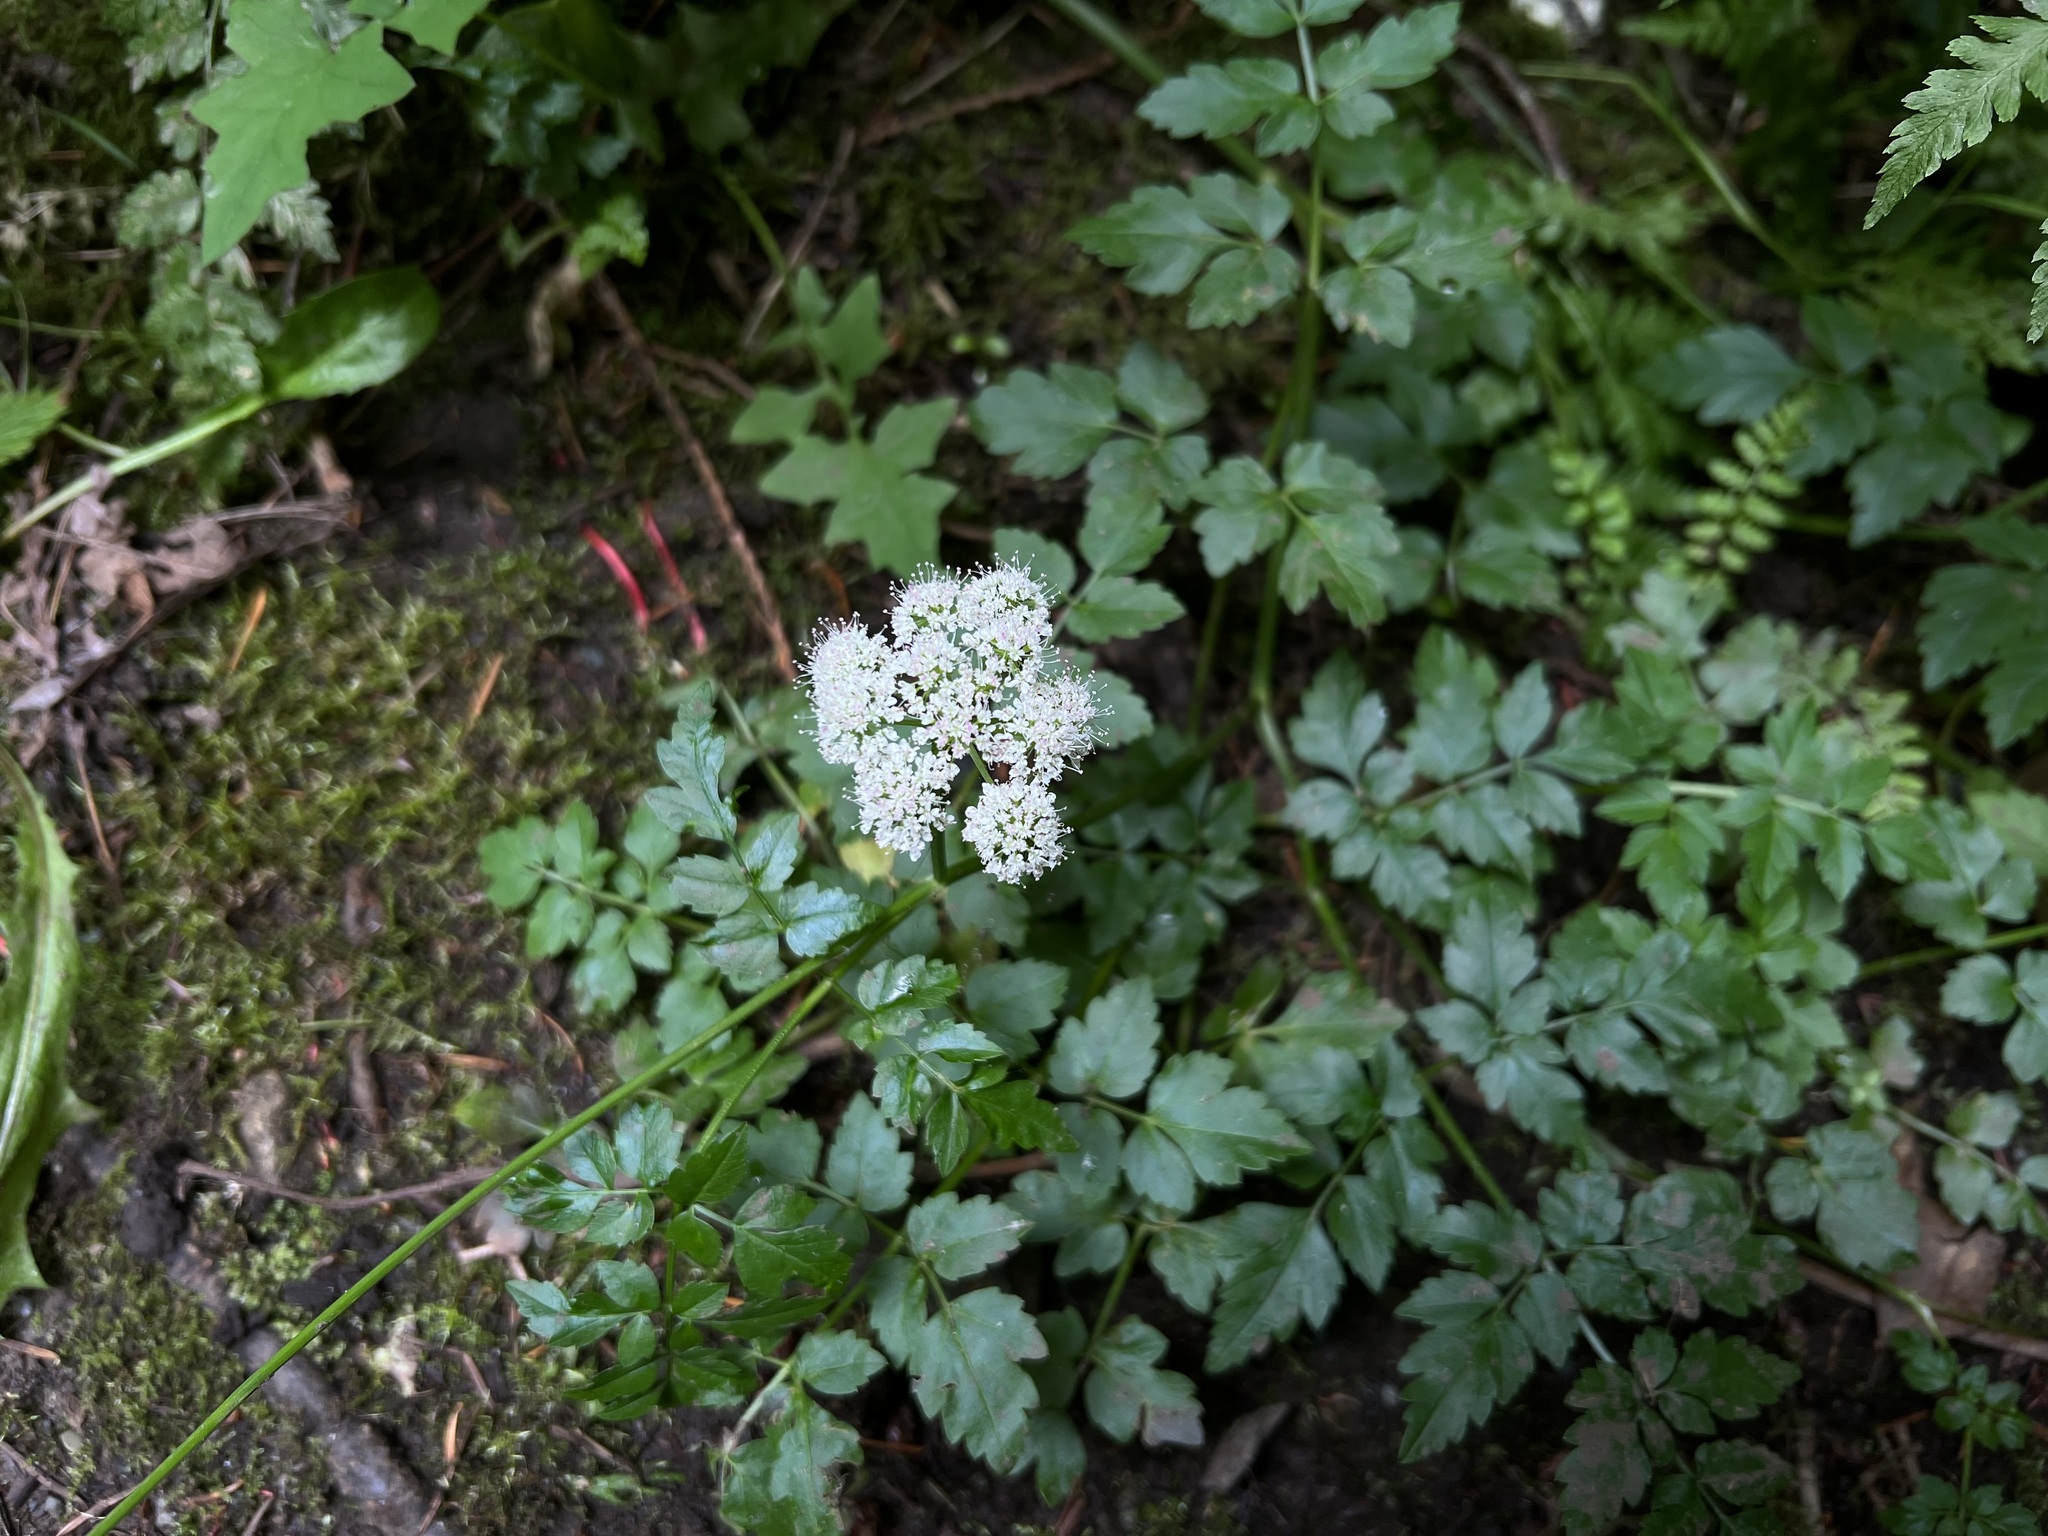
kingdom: Plantae
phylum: Tracheophyta
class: Magnoliopsida
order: Apiales
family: Apiaceae
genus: Oenanthe
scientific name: Oenanthe sarmentosa
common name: American water-parsley
